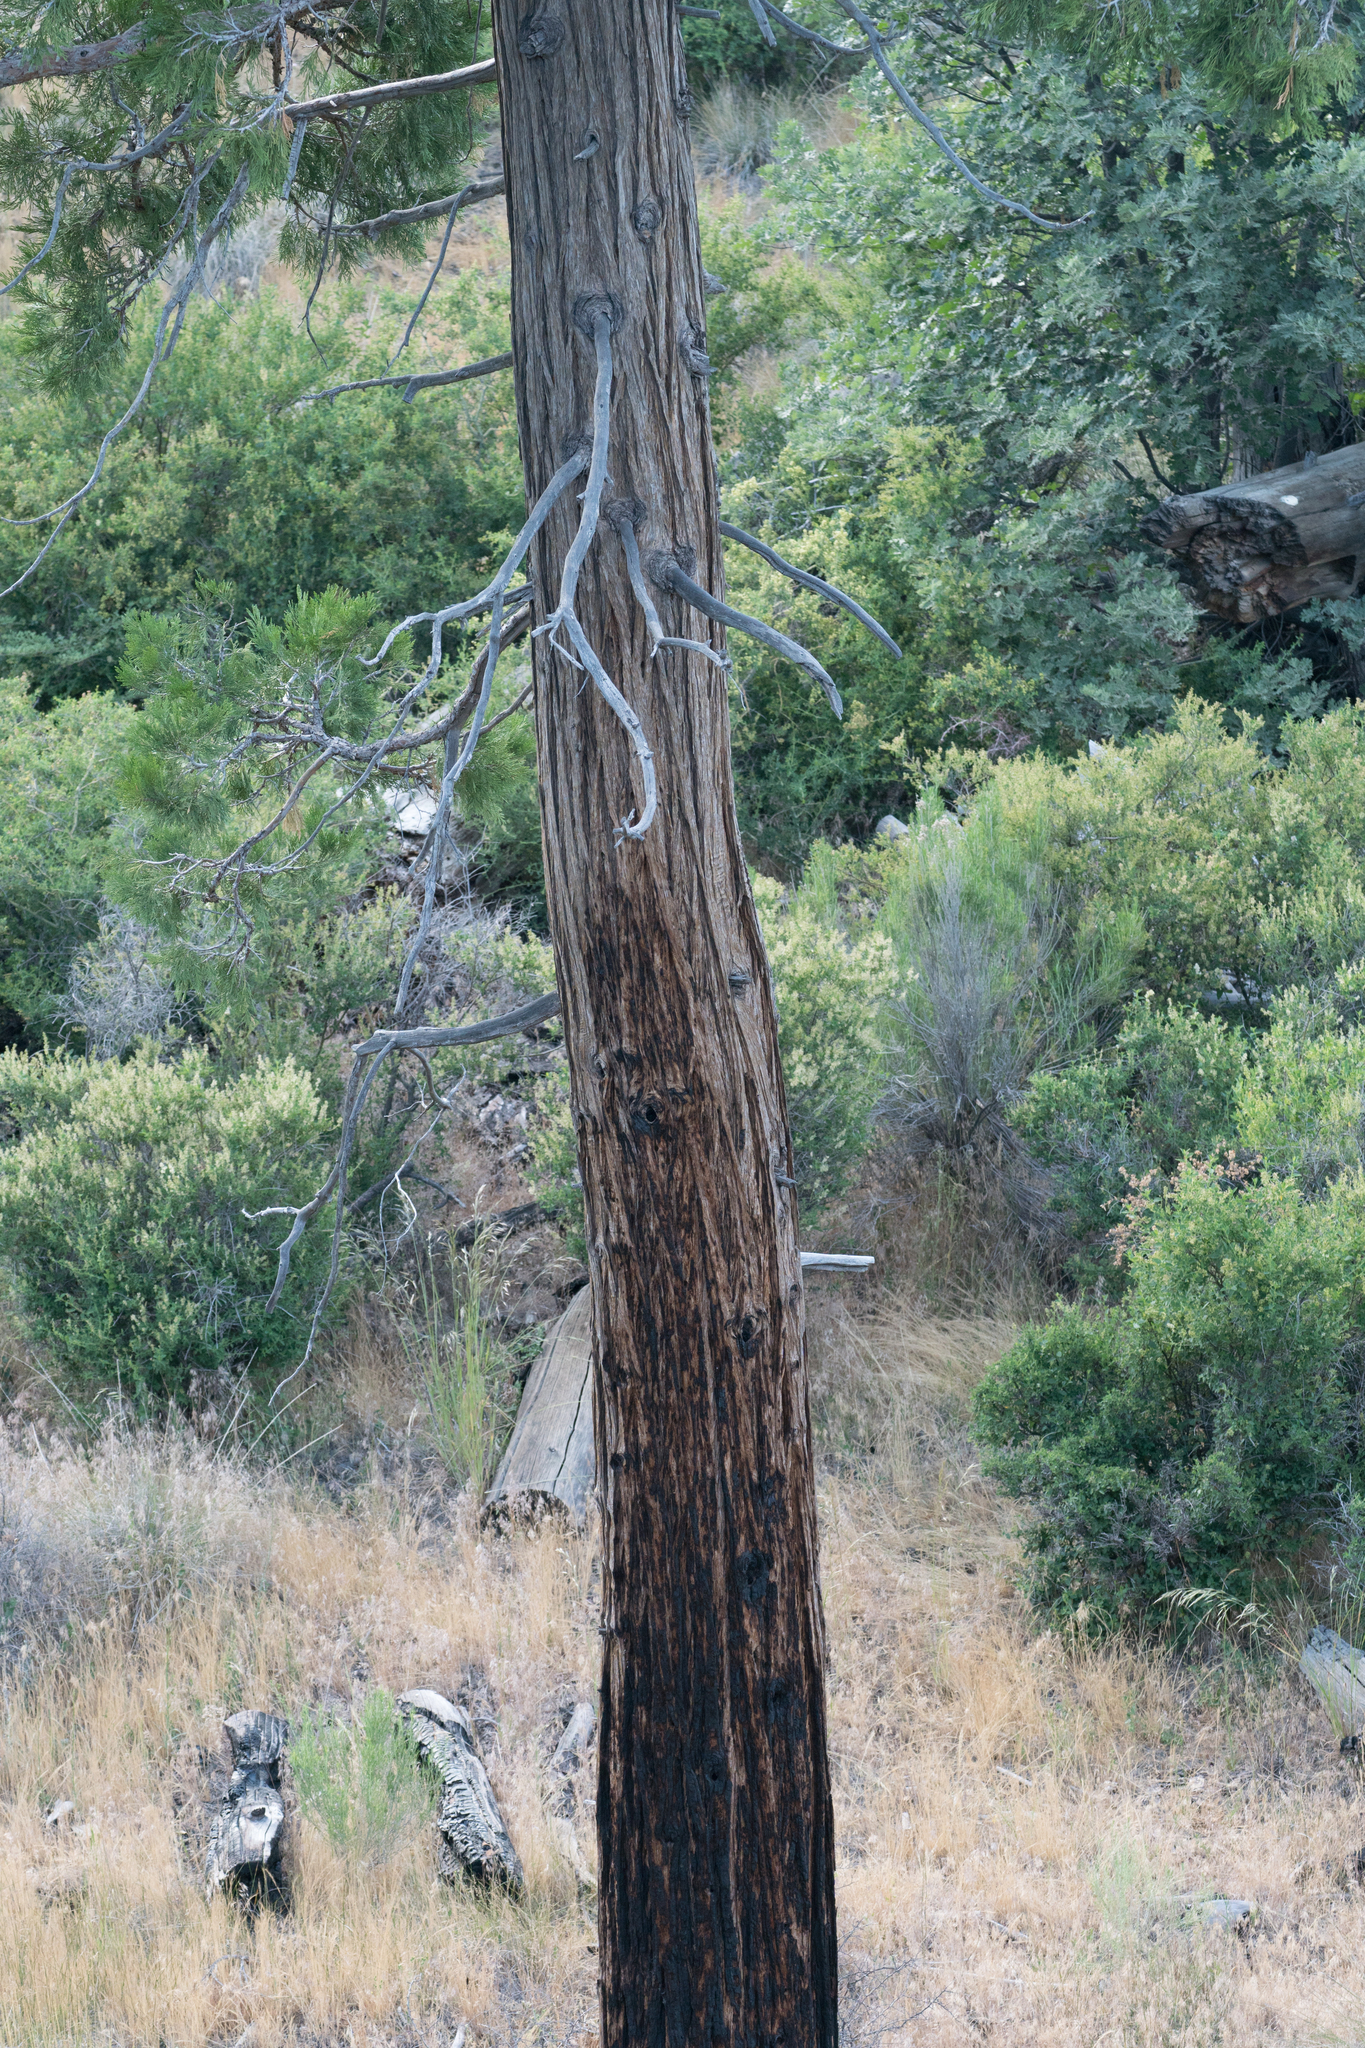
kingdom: Plantae
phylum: Tracheophyta
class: Pinopsida
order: Pinales
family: Cupressaceae
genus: Calocedrus
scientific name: Calocedrus decurrens
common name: Californian incense-cedar
